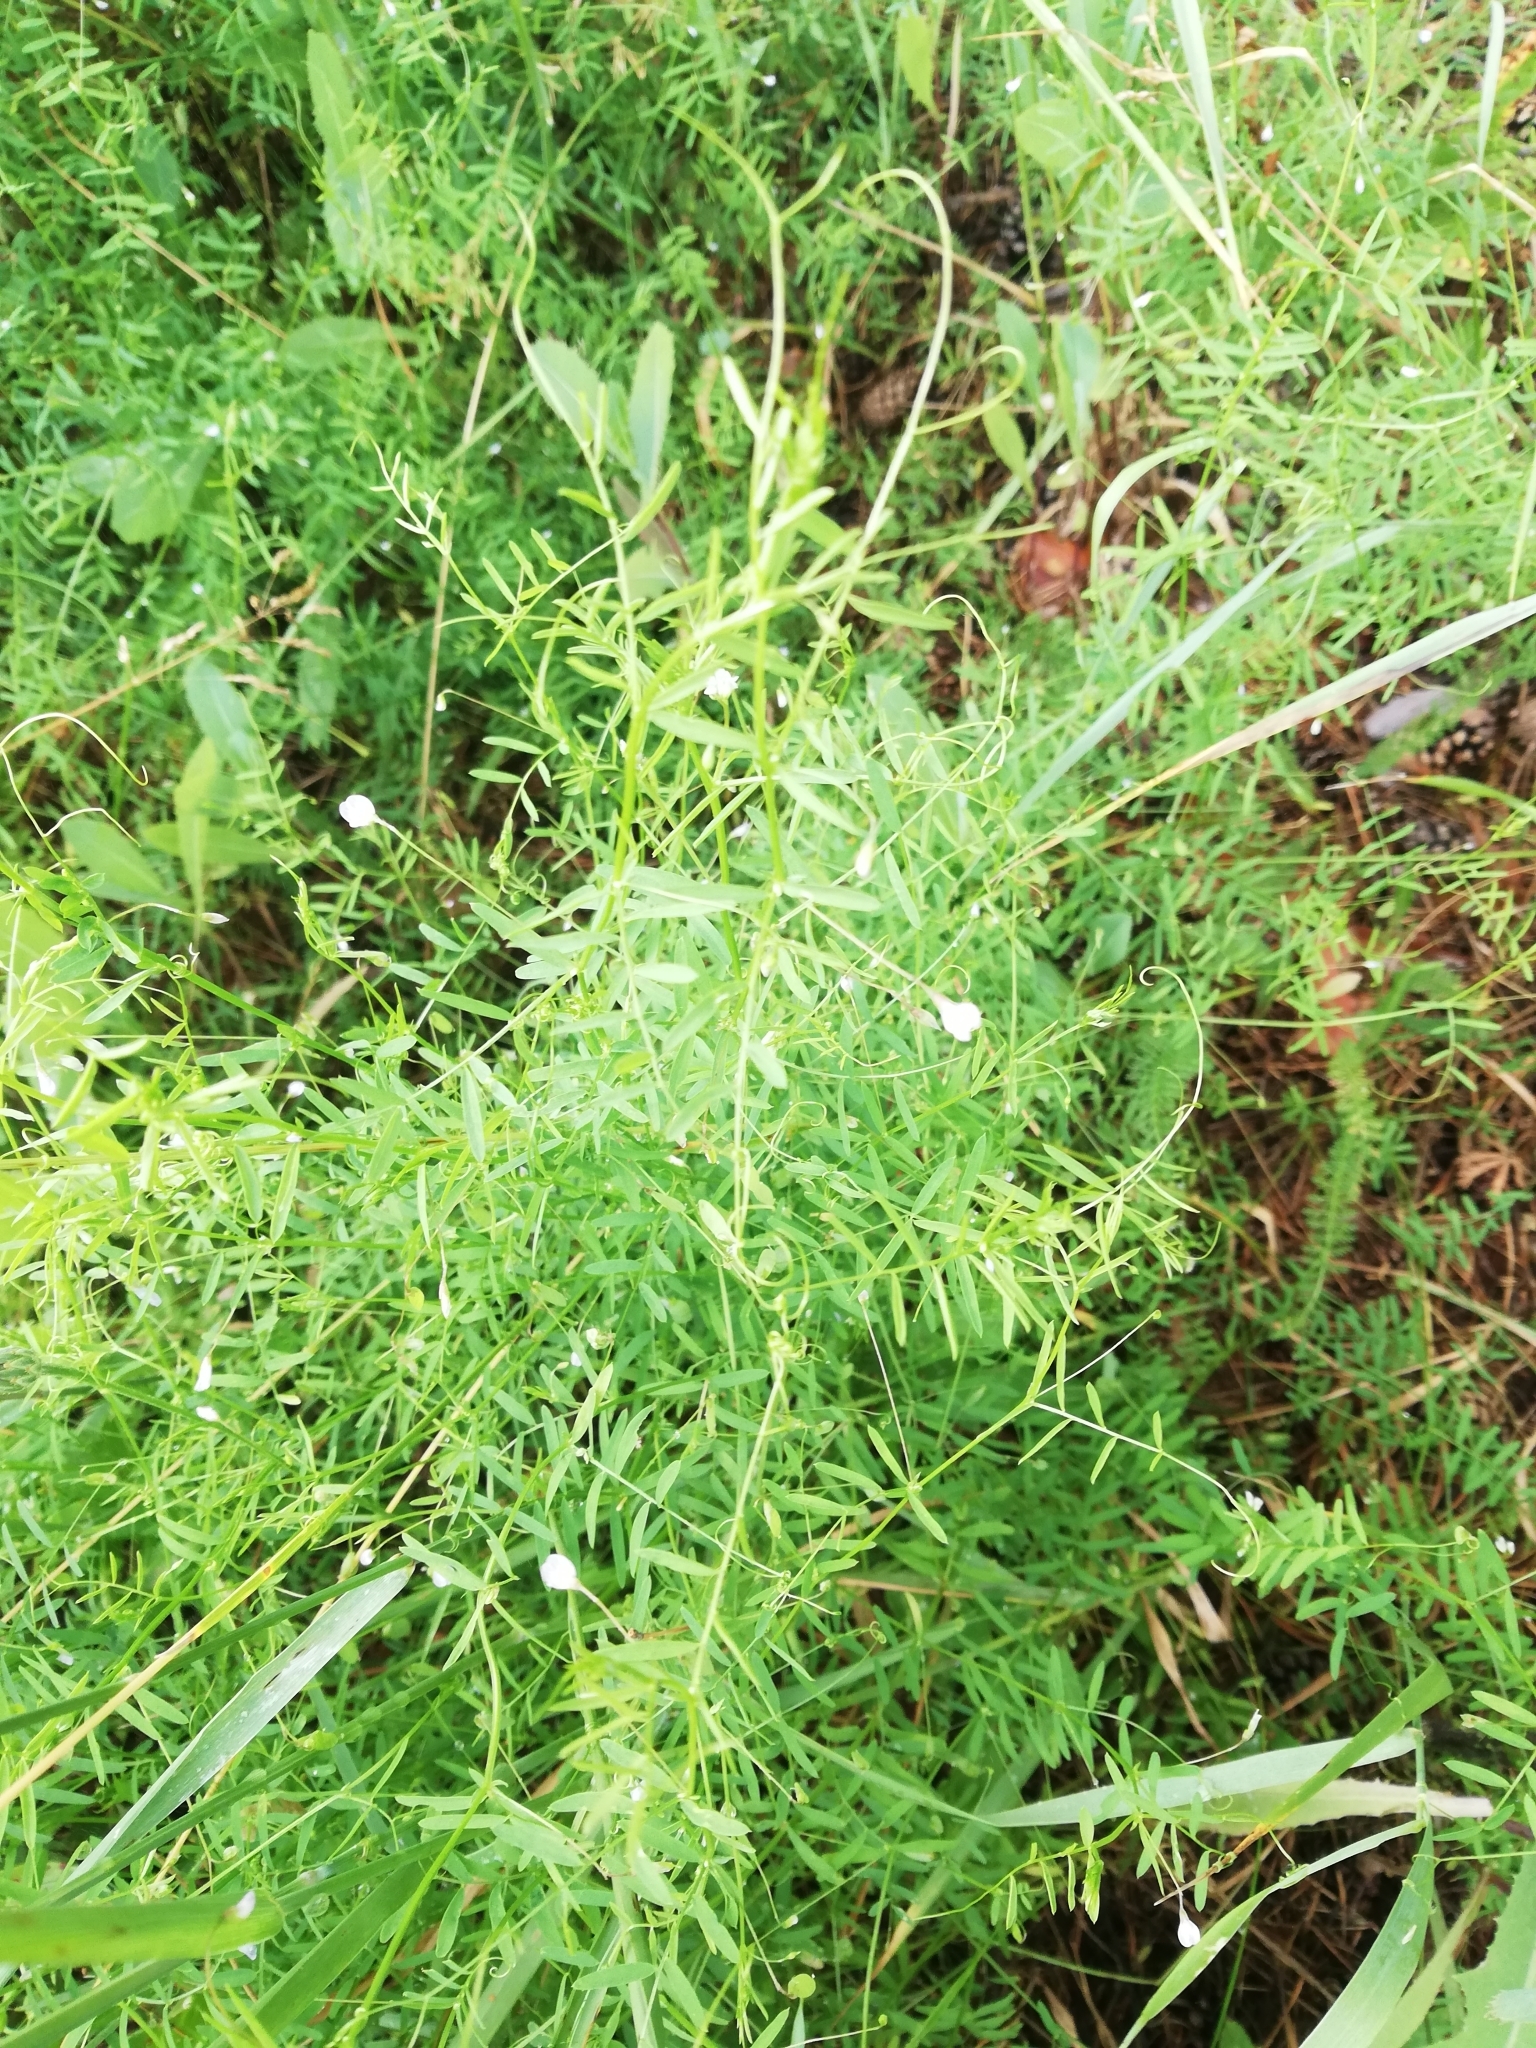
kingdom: Plantae
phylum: Tracheophyta
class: Magnoliopsida
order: Fabales
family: Fabaceae
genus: Vicia
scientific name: Vicia tetrasperma
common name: Smooth tare
